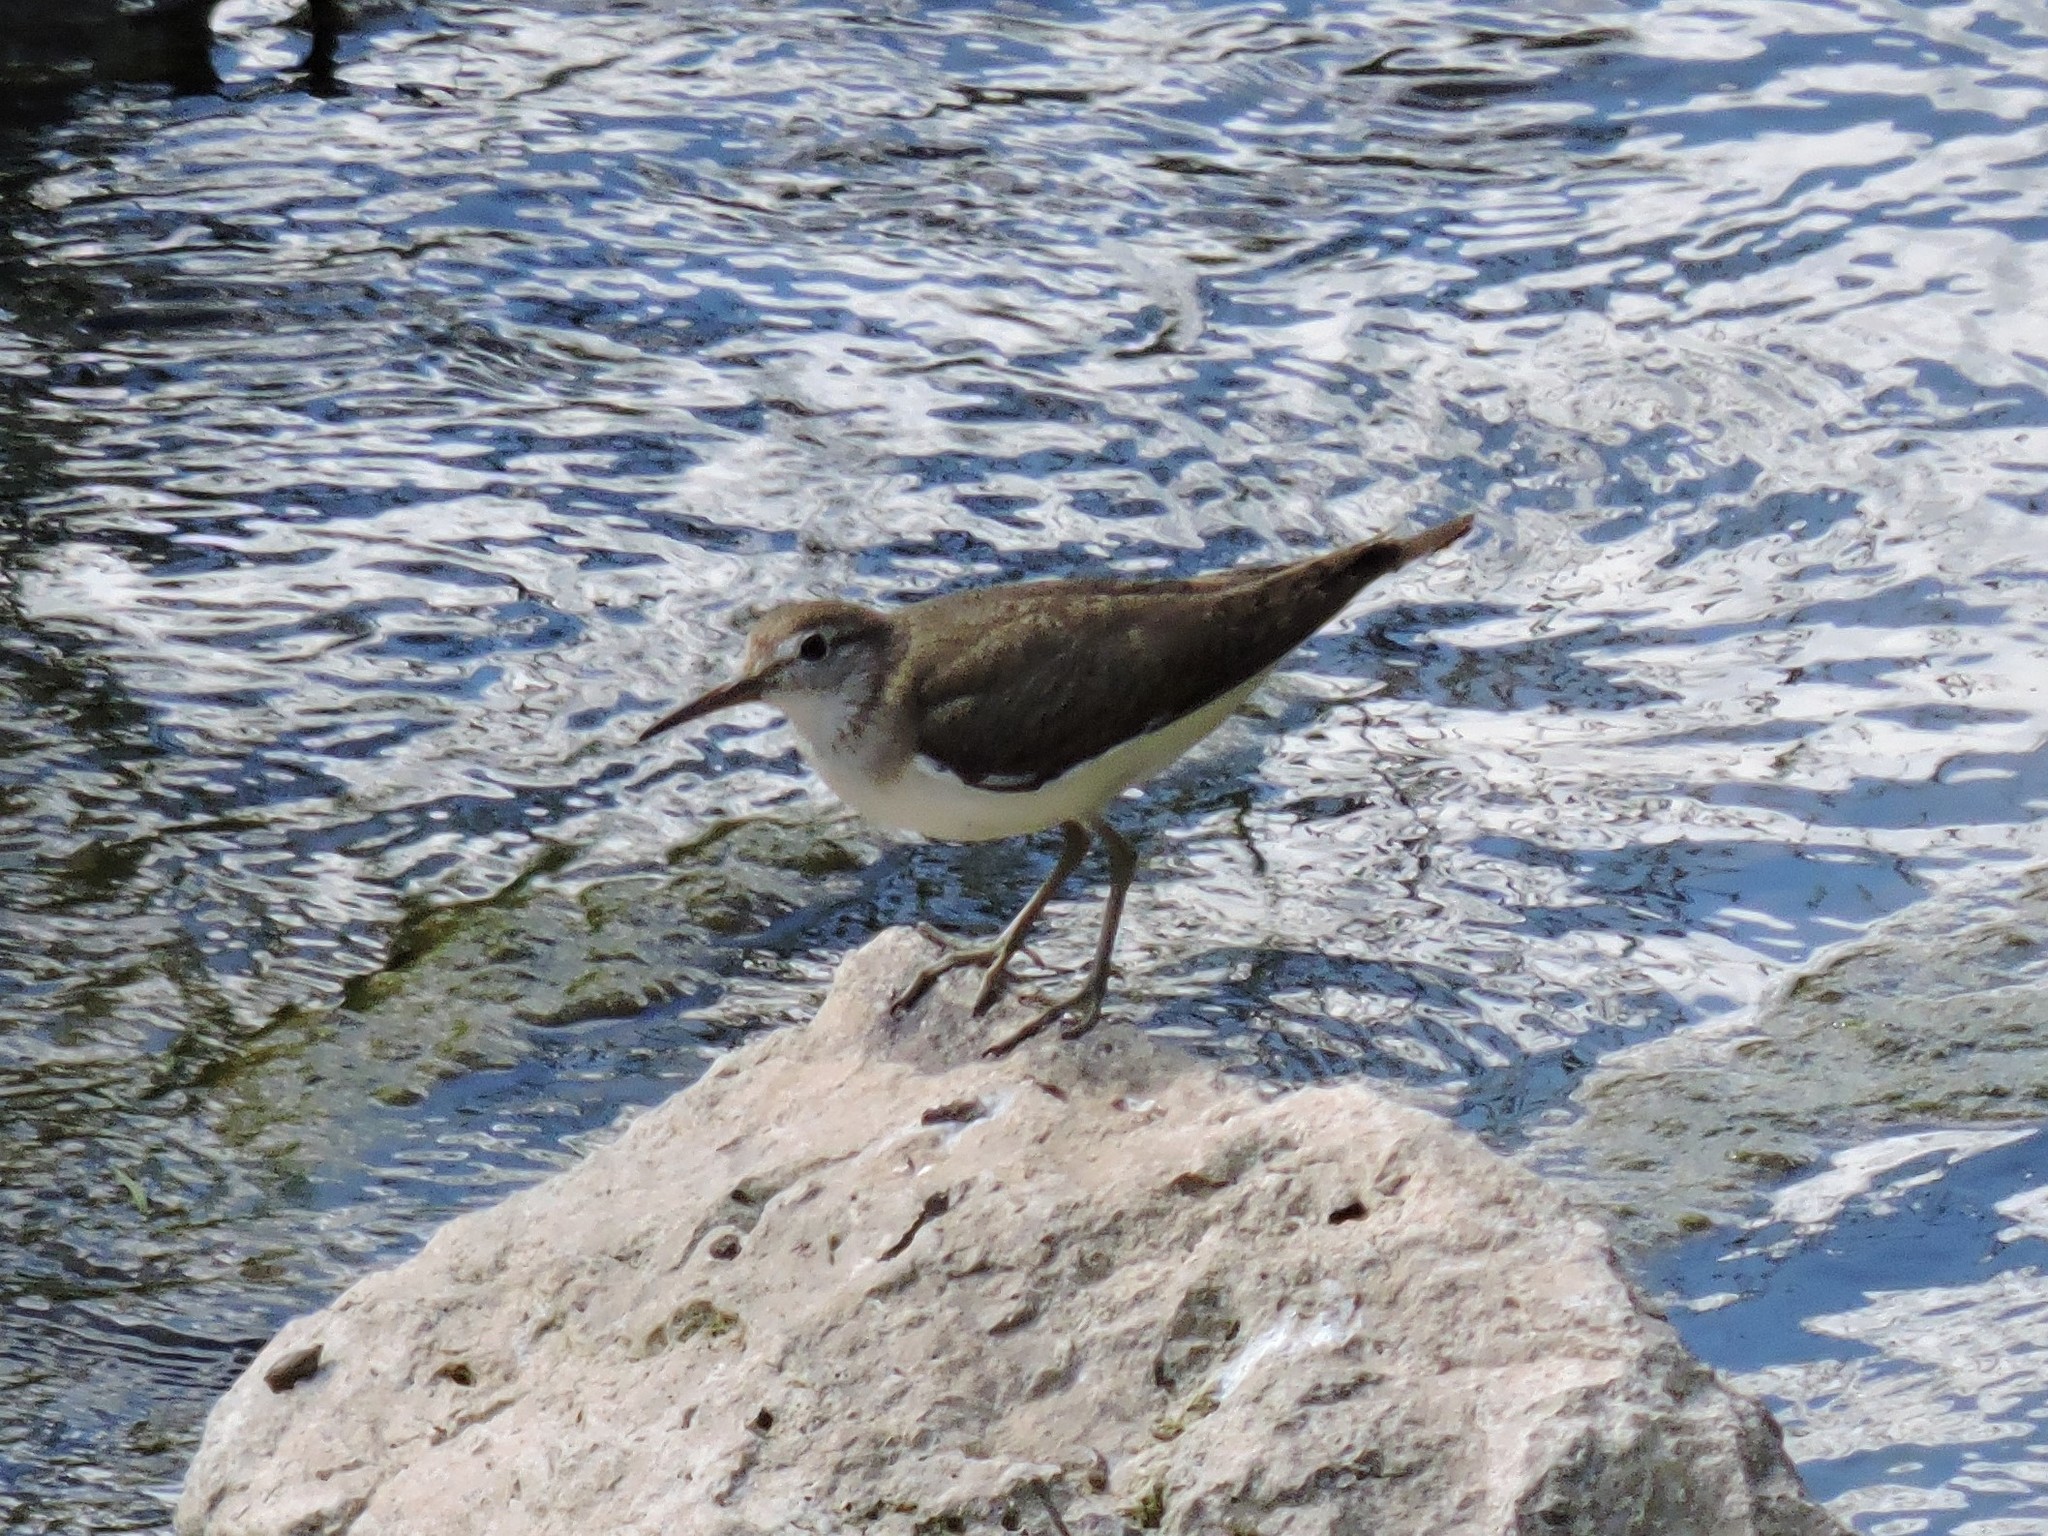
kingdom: Animalia
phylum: Chordata
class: Aves
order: Charadriiformes
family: Scolopacidae
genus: Actitis
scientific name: Actitis hypoleucos
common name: Common sandpiper
